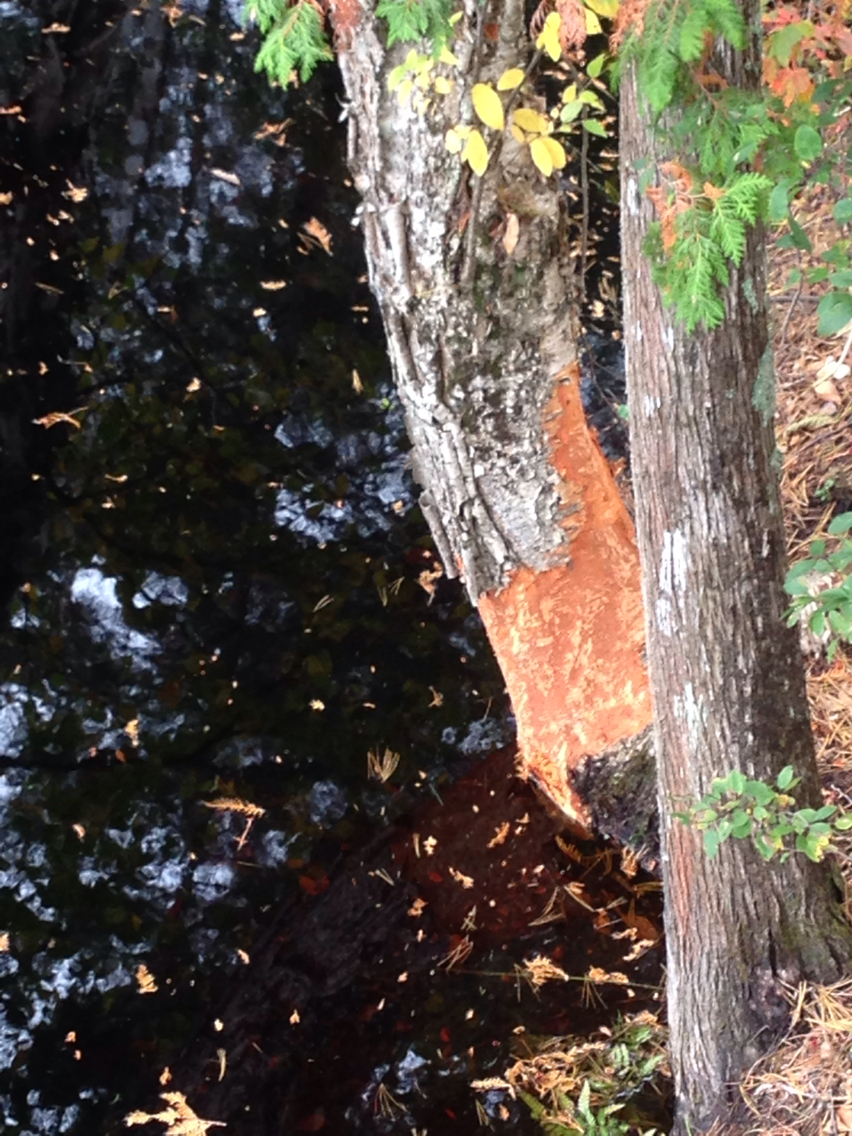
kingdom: Animalia
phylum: Chordata
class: Mammalia
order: Rodentia
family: Castoridae
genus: Castor
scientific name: Castor canadensis
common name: American beaver
